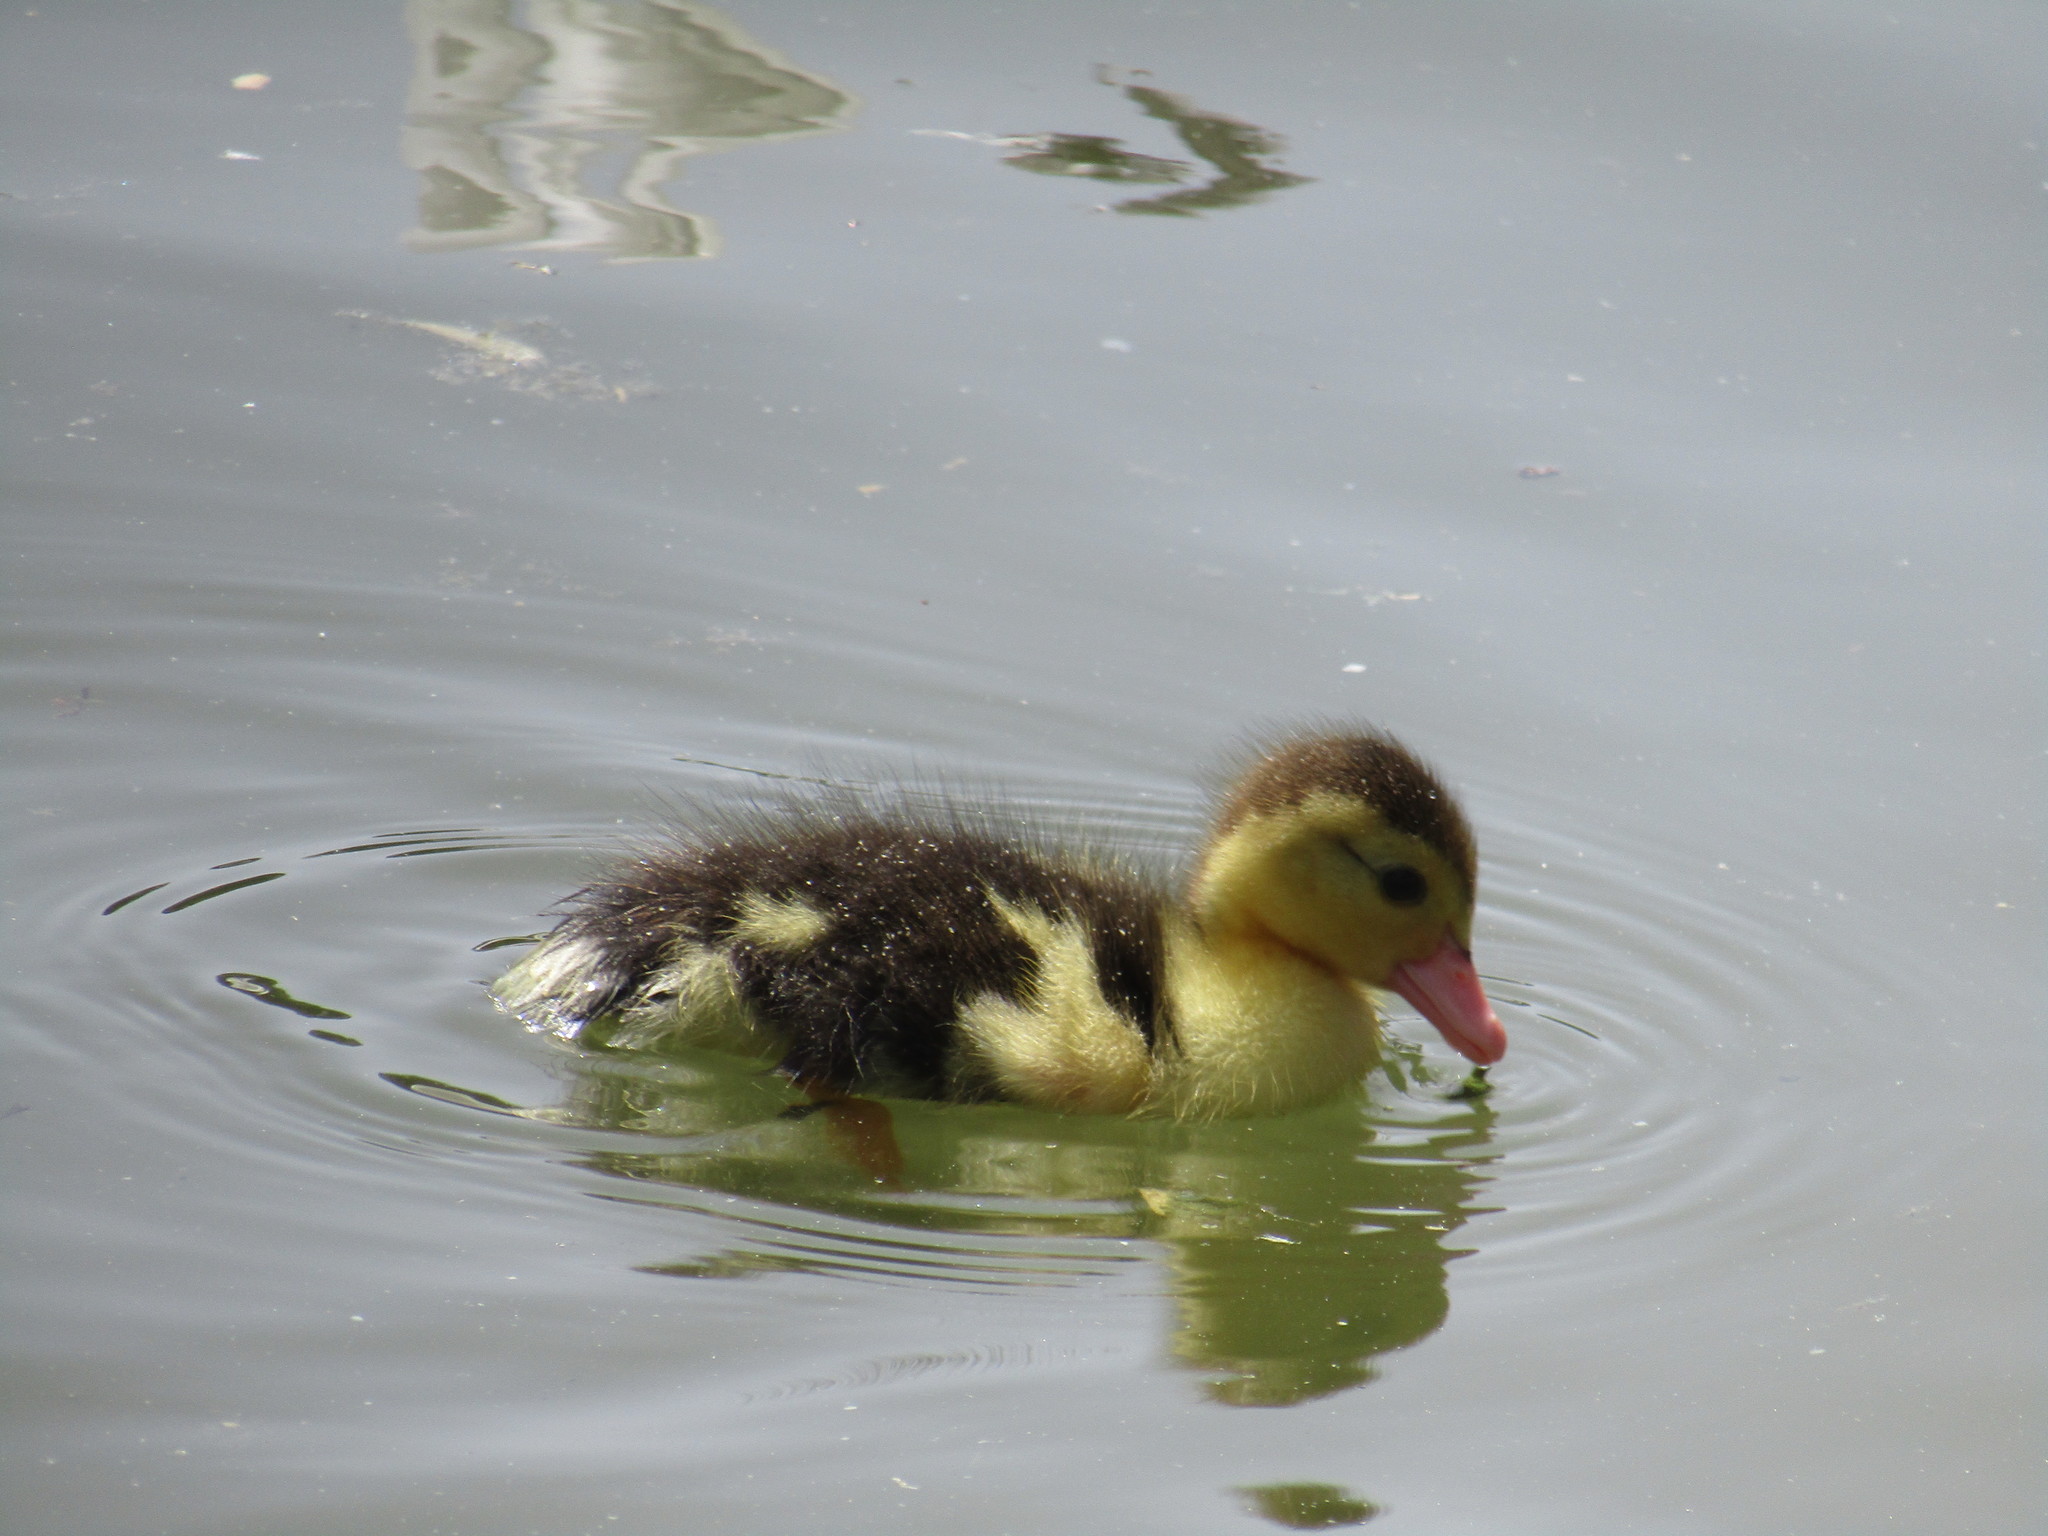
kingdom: Animalia
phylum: Chordata
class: Aves
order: Anseriformes
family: Anatidae
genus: Cairina
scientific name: Cairina moschata
